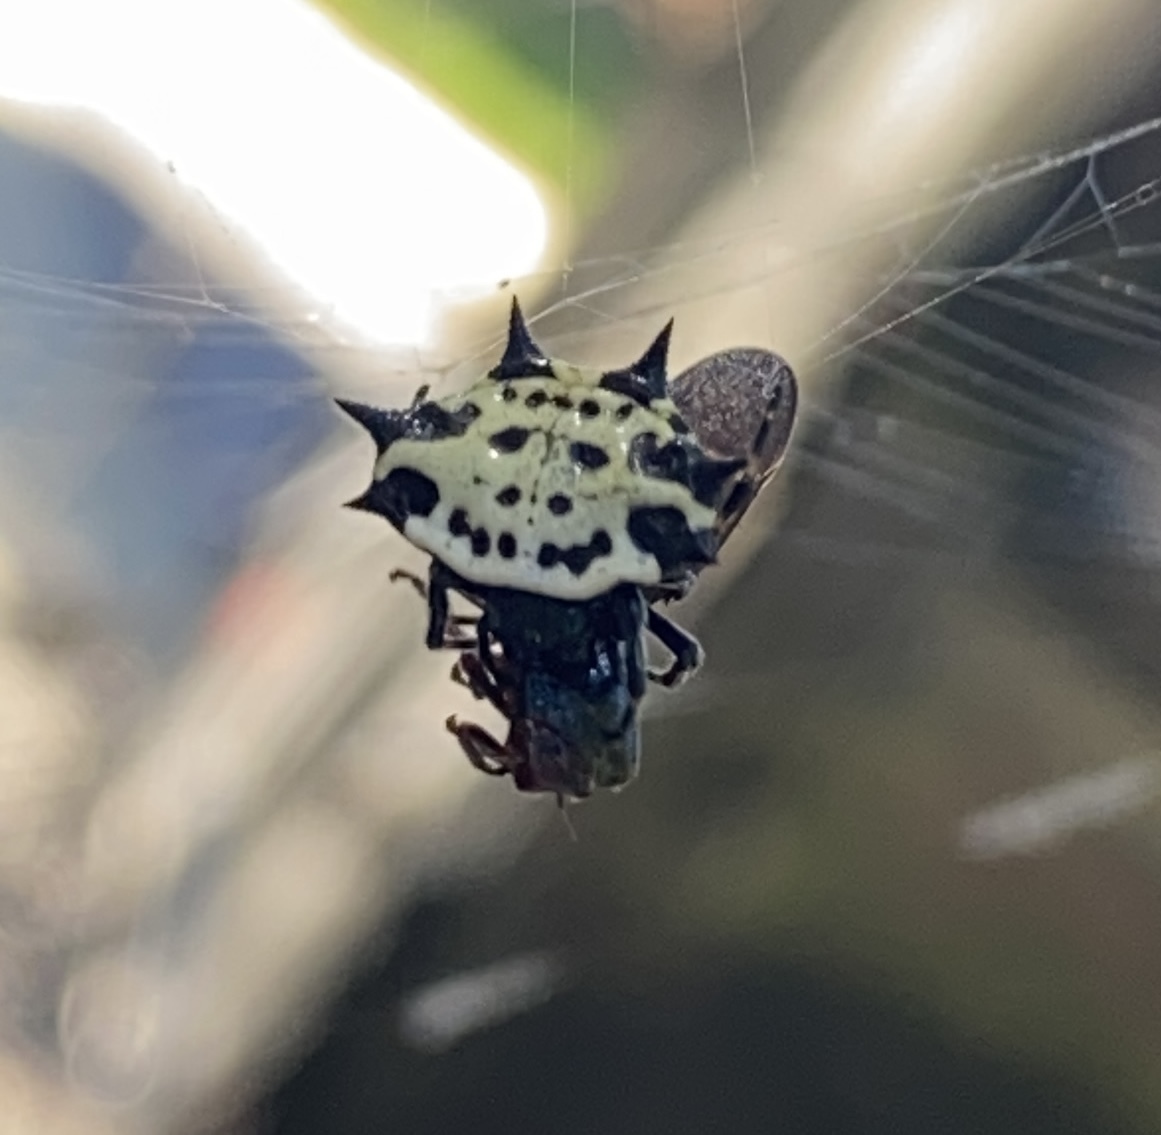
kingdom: Animalia
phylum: Arthropoda
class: Insecta
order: Hemiptera
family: Cercopidae
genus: Prosapia
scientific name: Prosapia bicincta
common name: Twolined spittlebug
